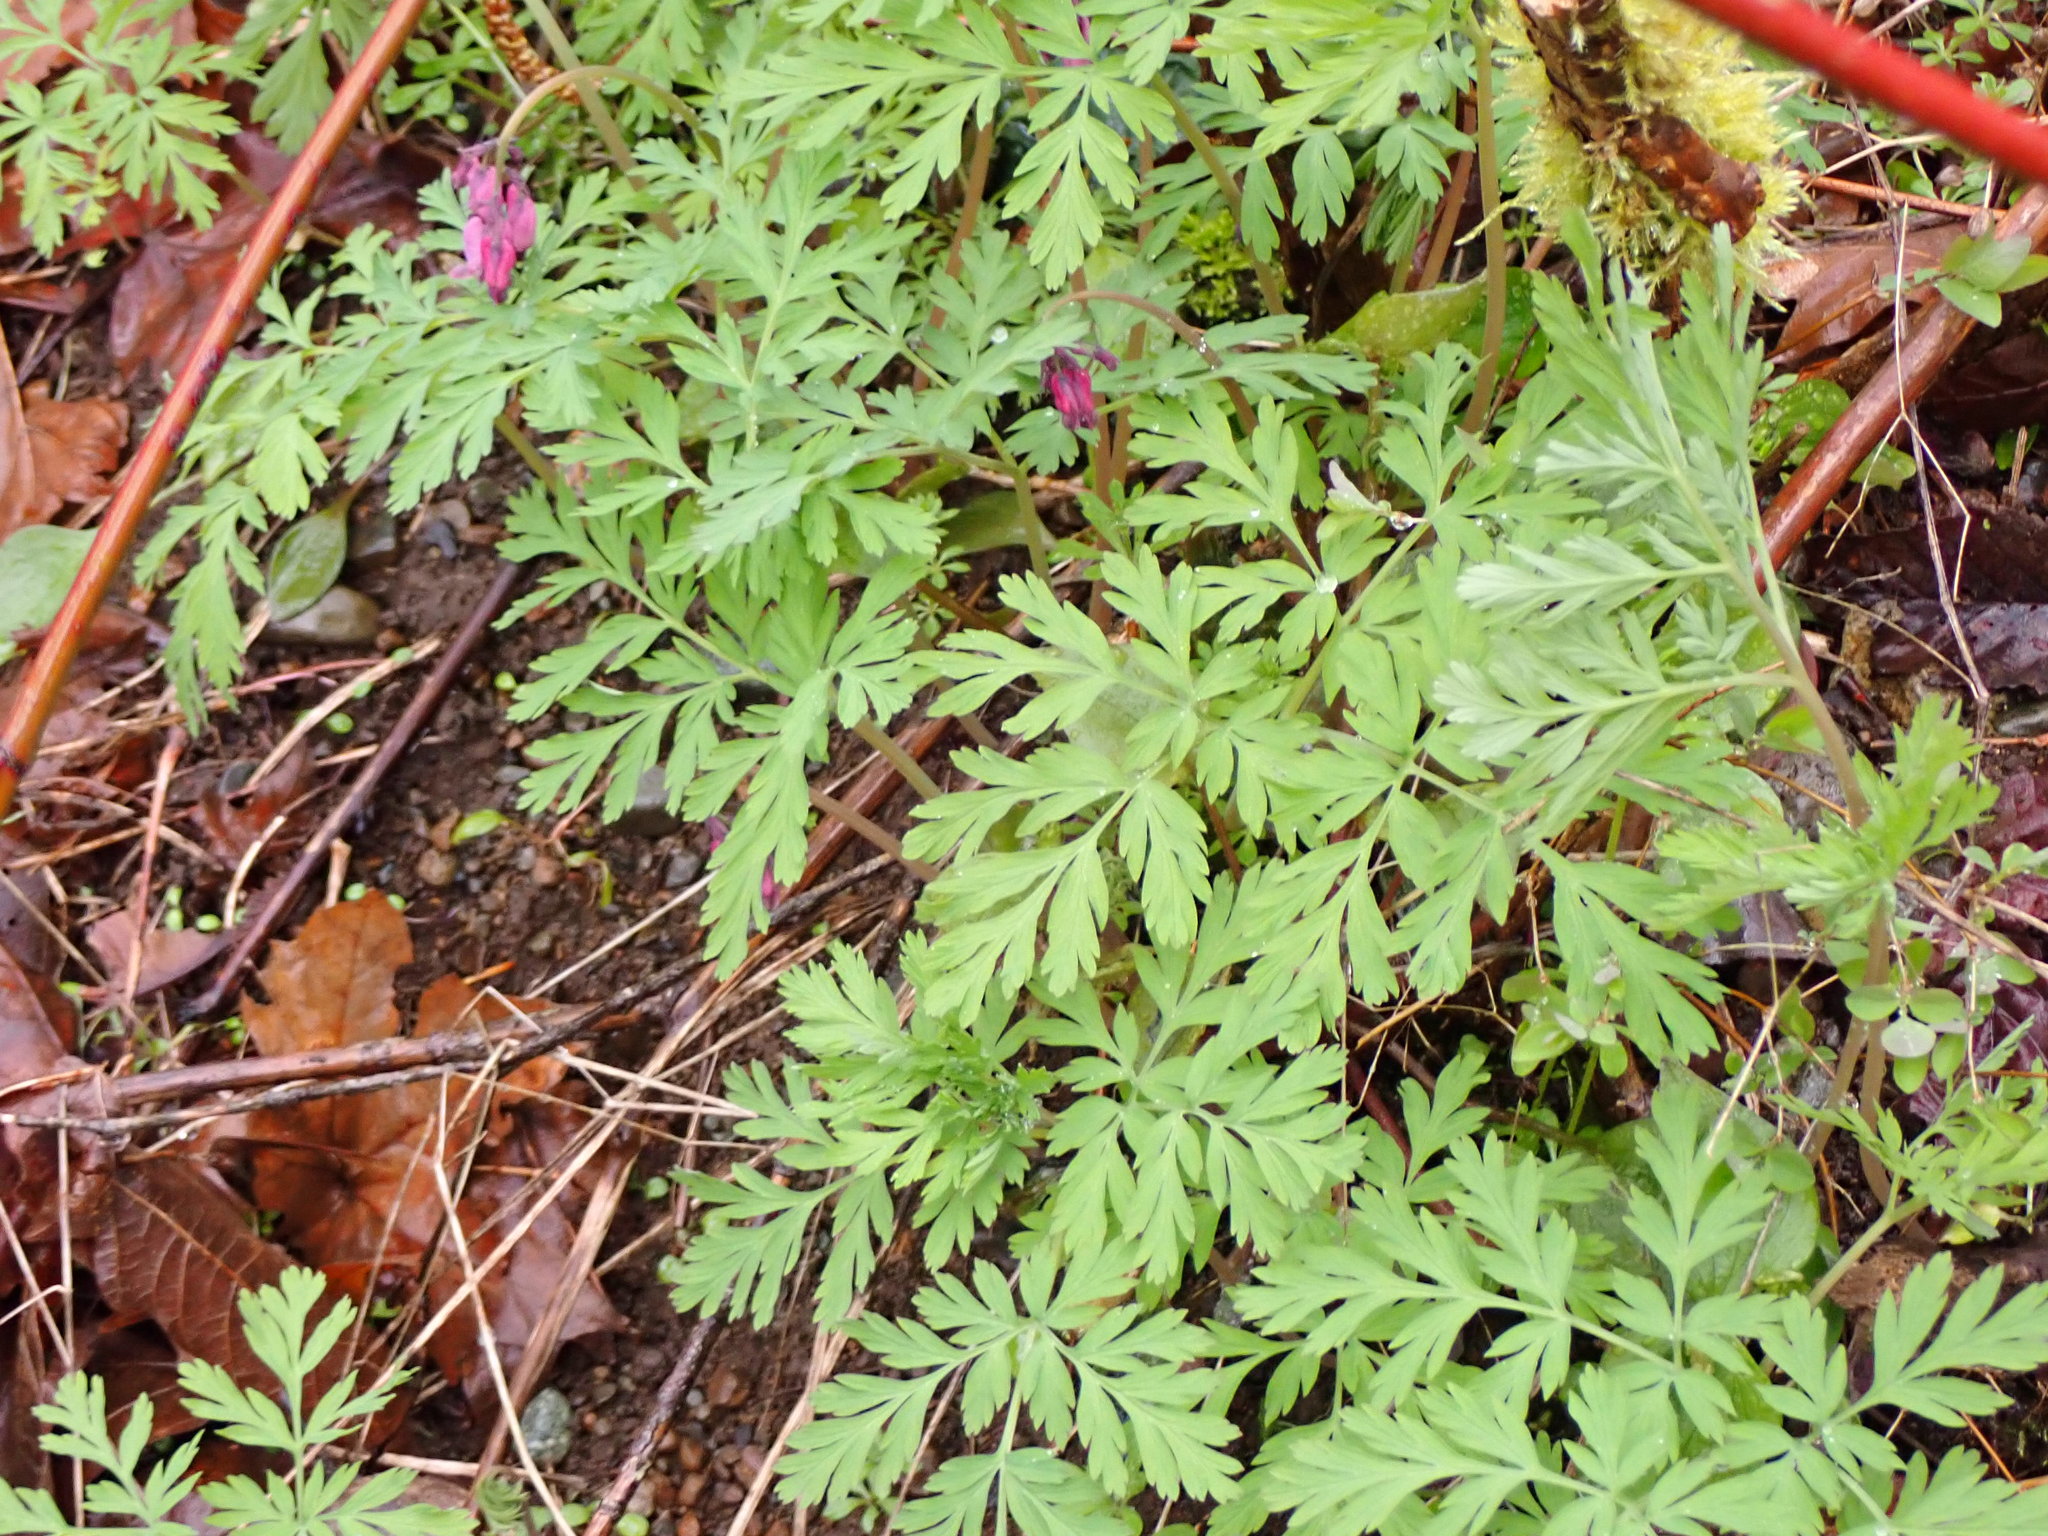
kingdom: Plantae
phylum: Tracheophyta
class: Magnoliopsida
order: Ranunculales
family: Papaveraceae
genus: Dicentra
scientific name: Dicentra formosa
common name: Bleeding-heart
